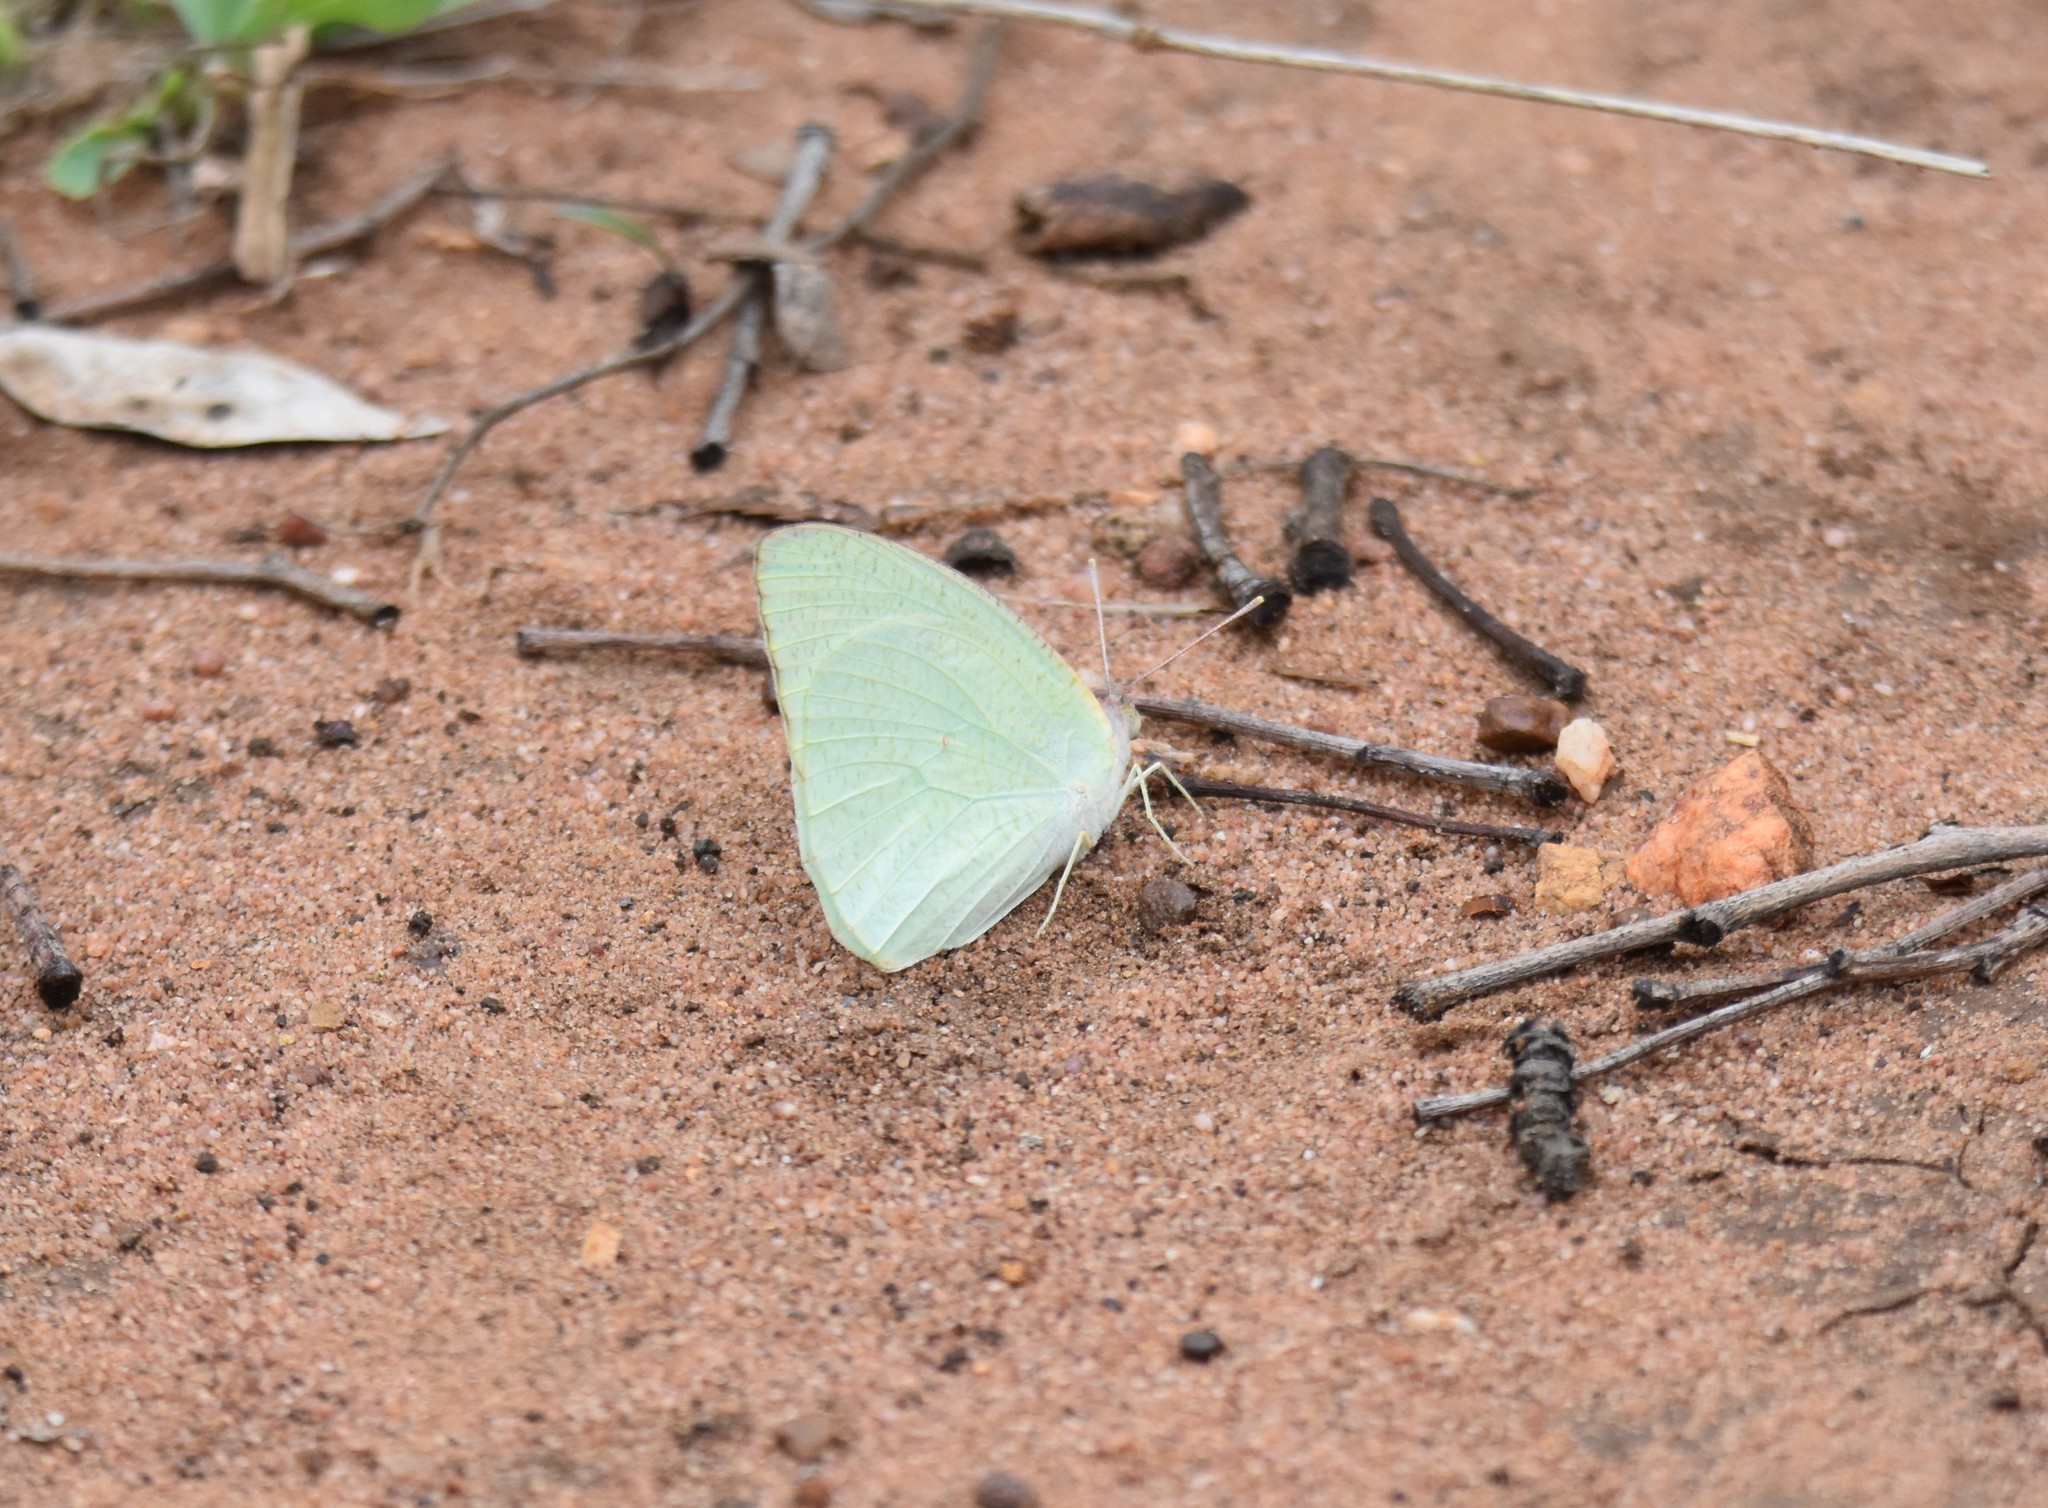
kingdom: Animalia
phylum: Arthropoda
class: Insecta
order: Lepidoptera
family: Pieridae
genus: Catopsilia
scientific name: Catopsilia florella
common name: African migrant
